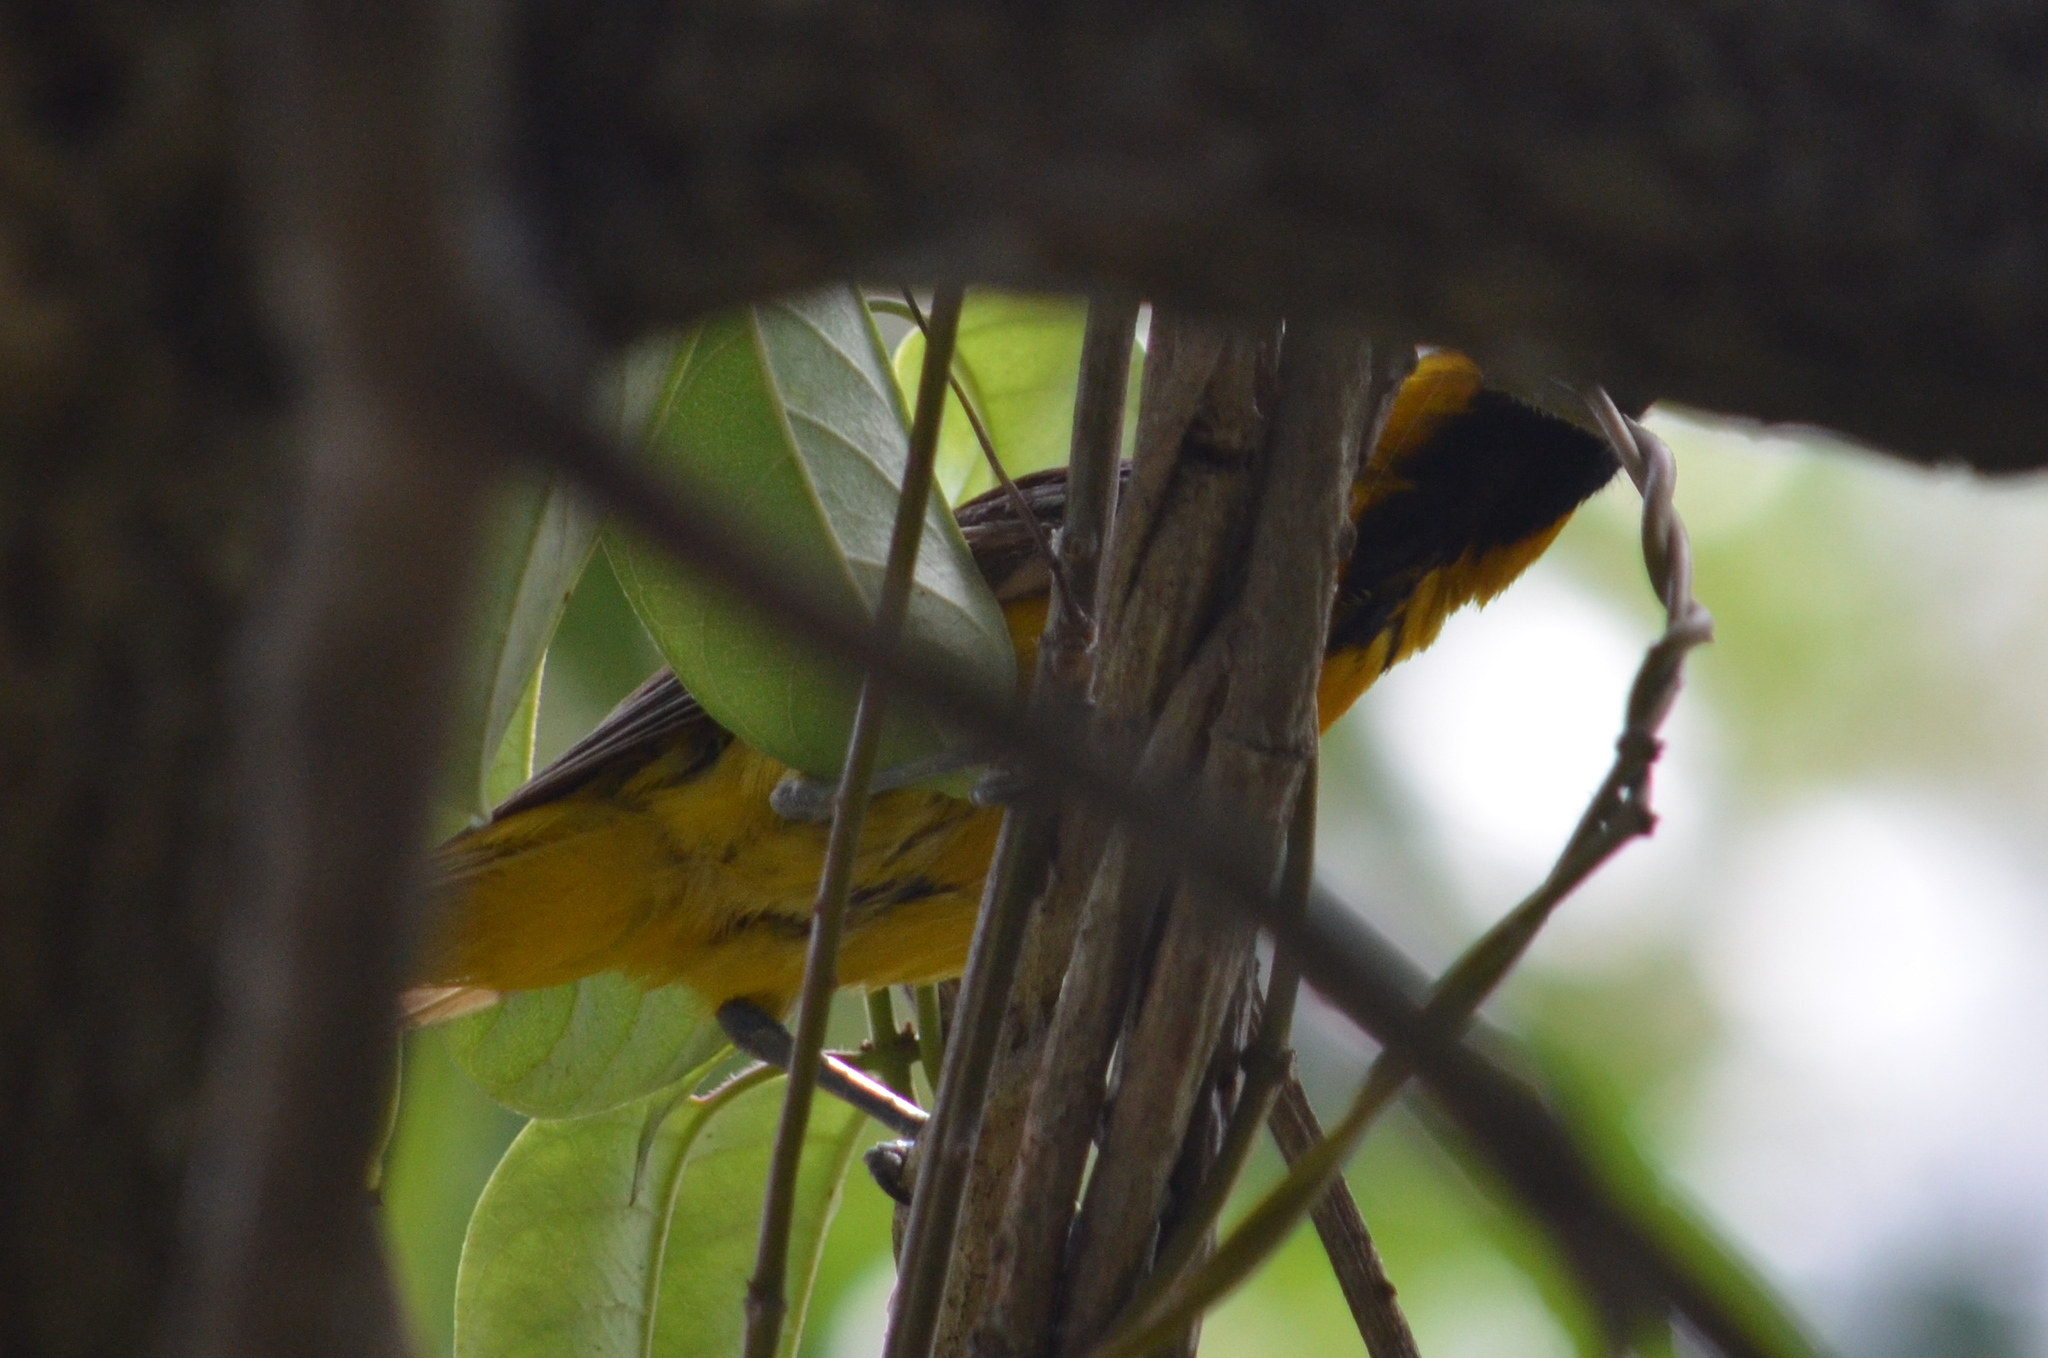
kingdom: Animalia
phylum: Chordata
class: Aves
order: Passeriformes
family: Icteridae
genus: Icterus
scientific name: Icterus auratus
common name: Orange oriole
